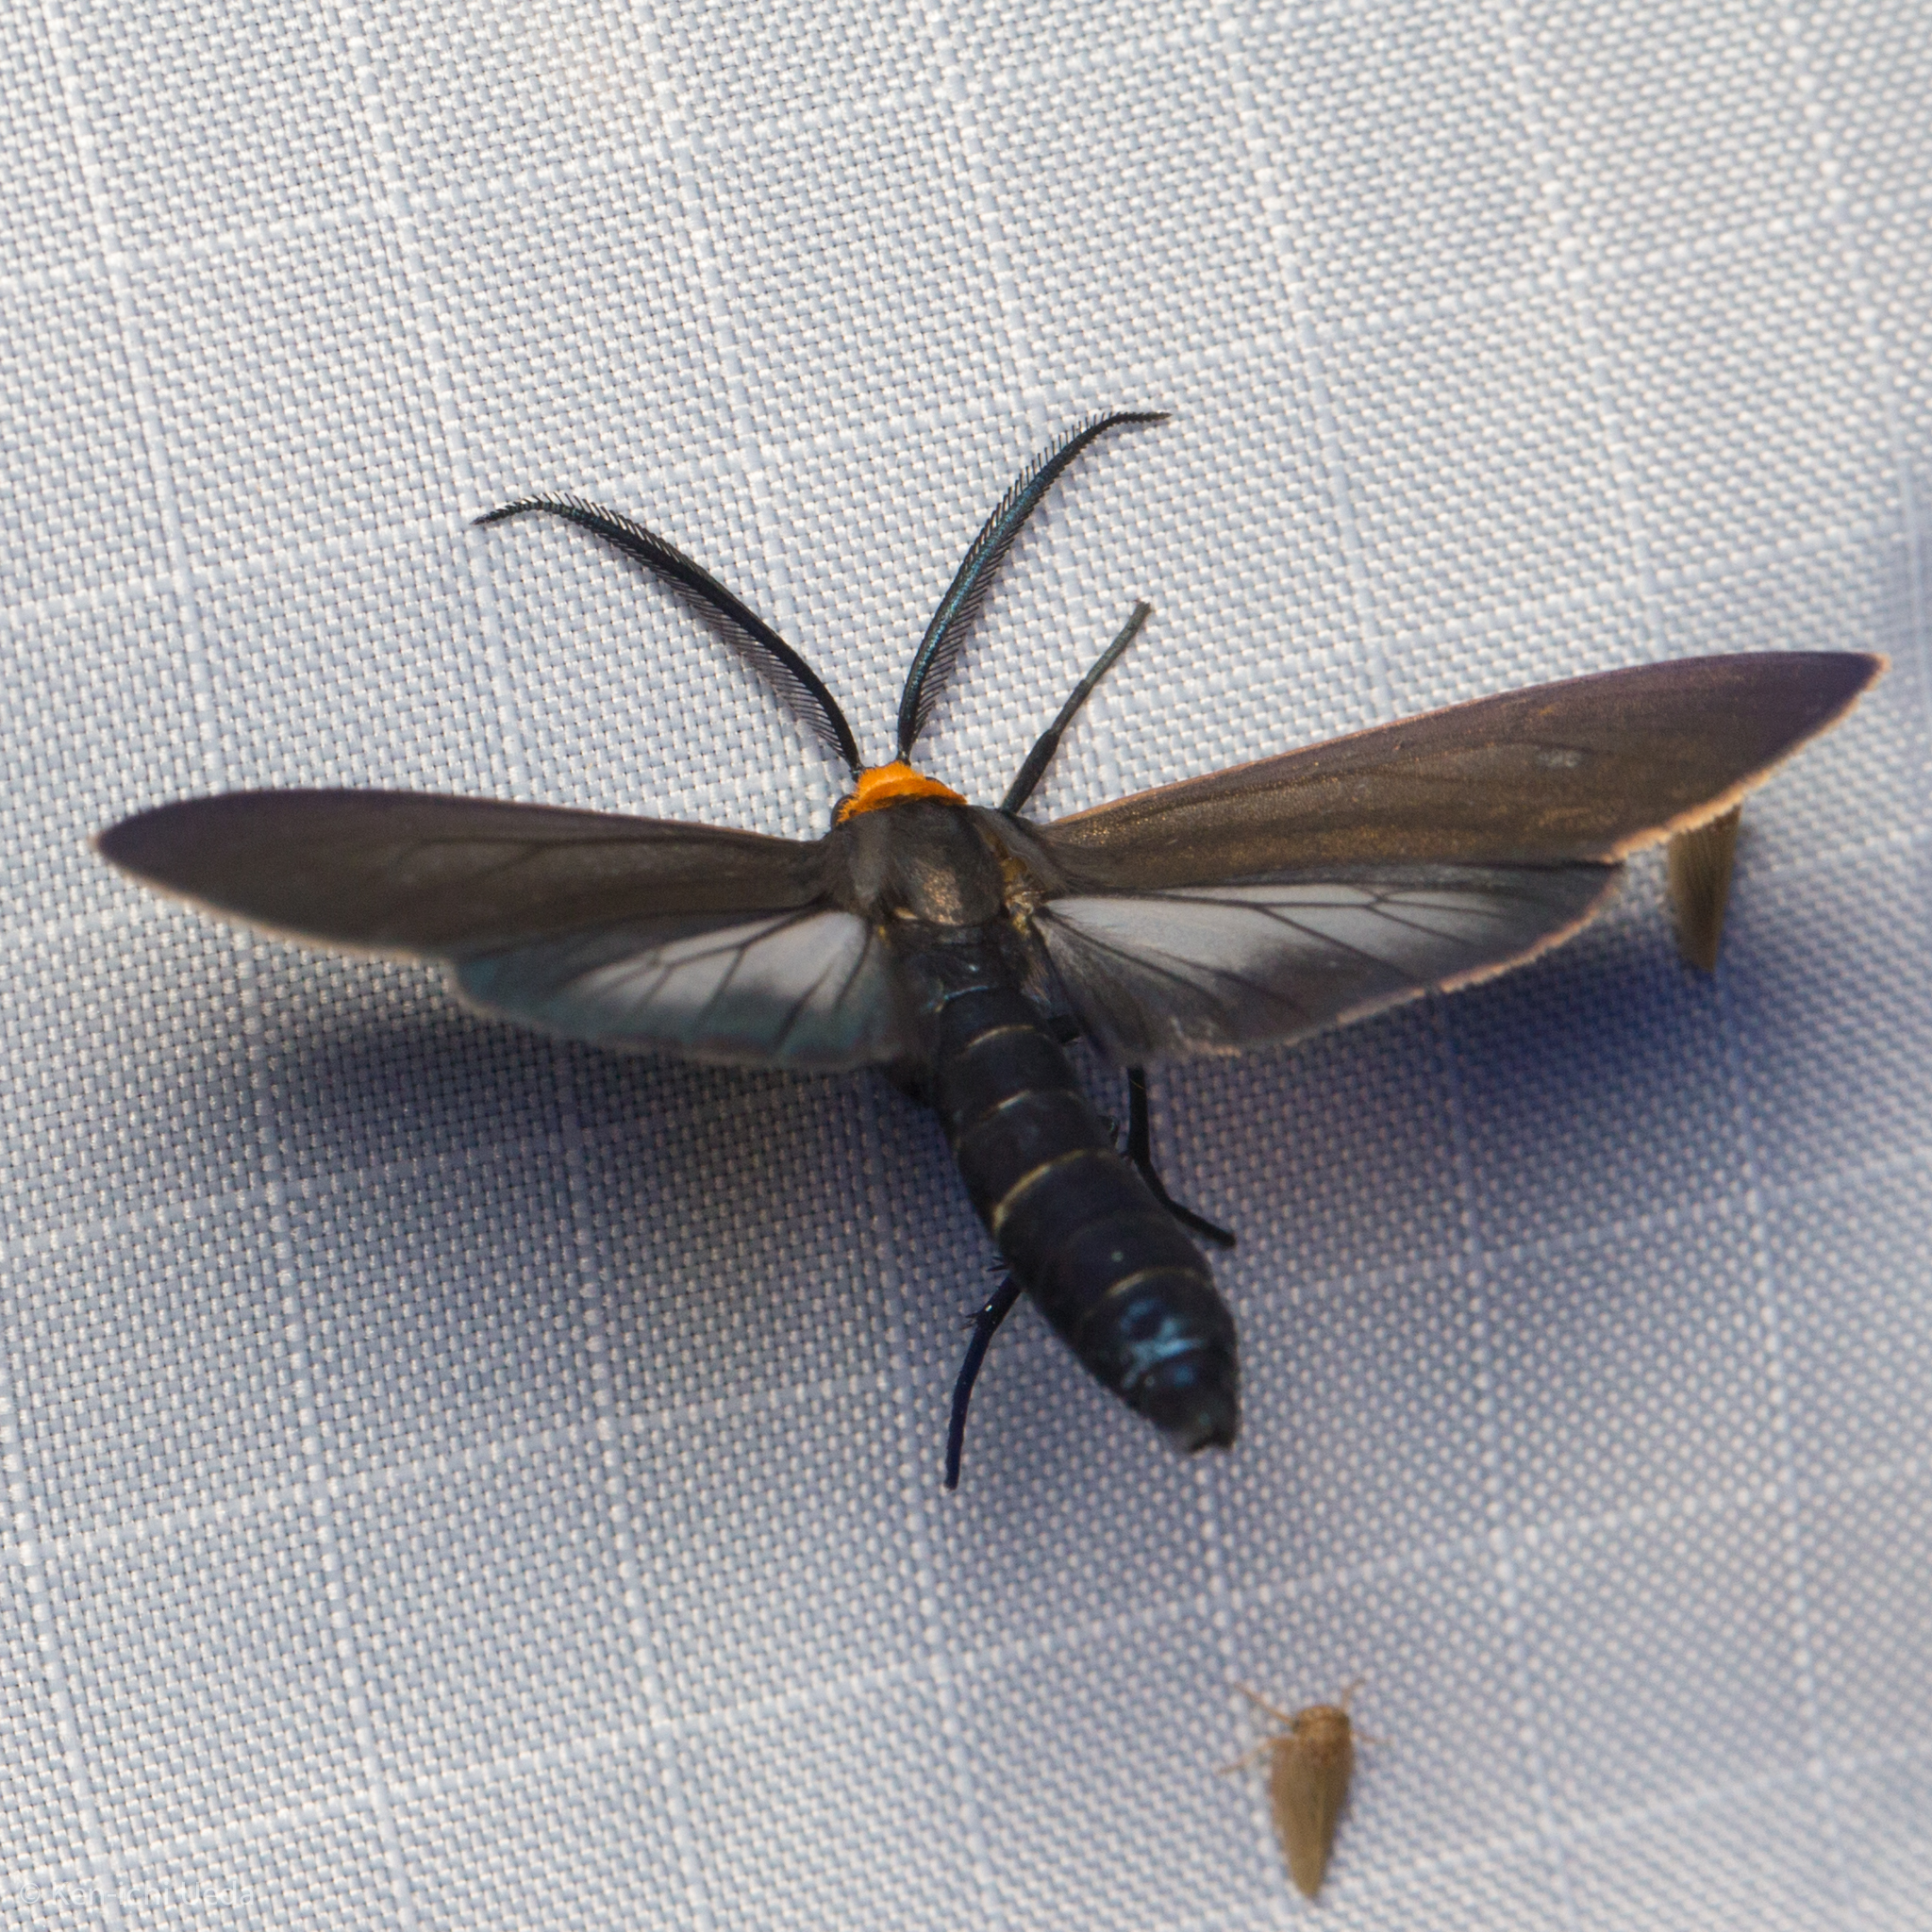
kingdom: Animalia
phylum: Arthropoda
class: Insecta
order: Lepidoptera
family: Erebidae
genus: Cisseps
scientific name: Cisseps fulvicollis
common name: Yellow-collared scape moth
